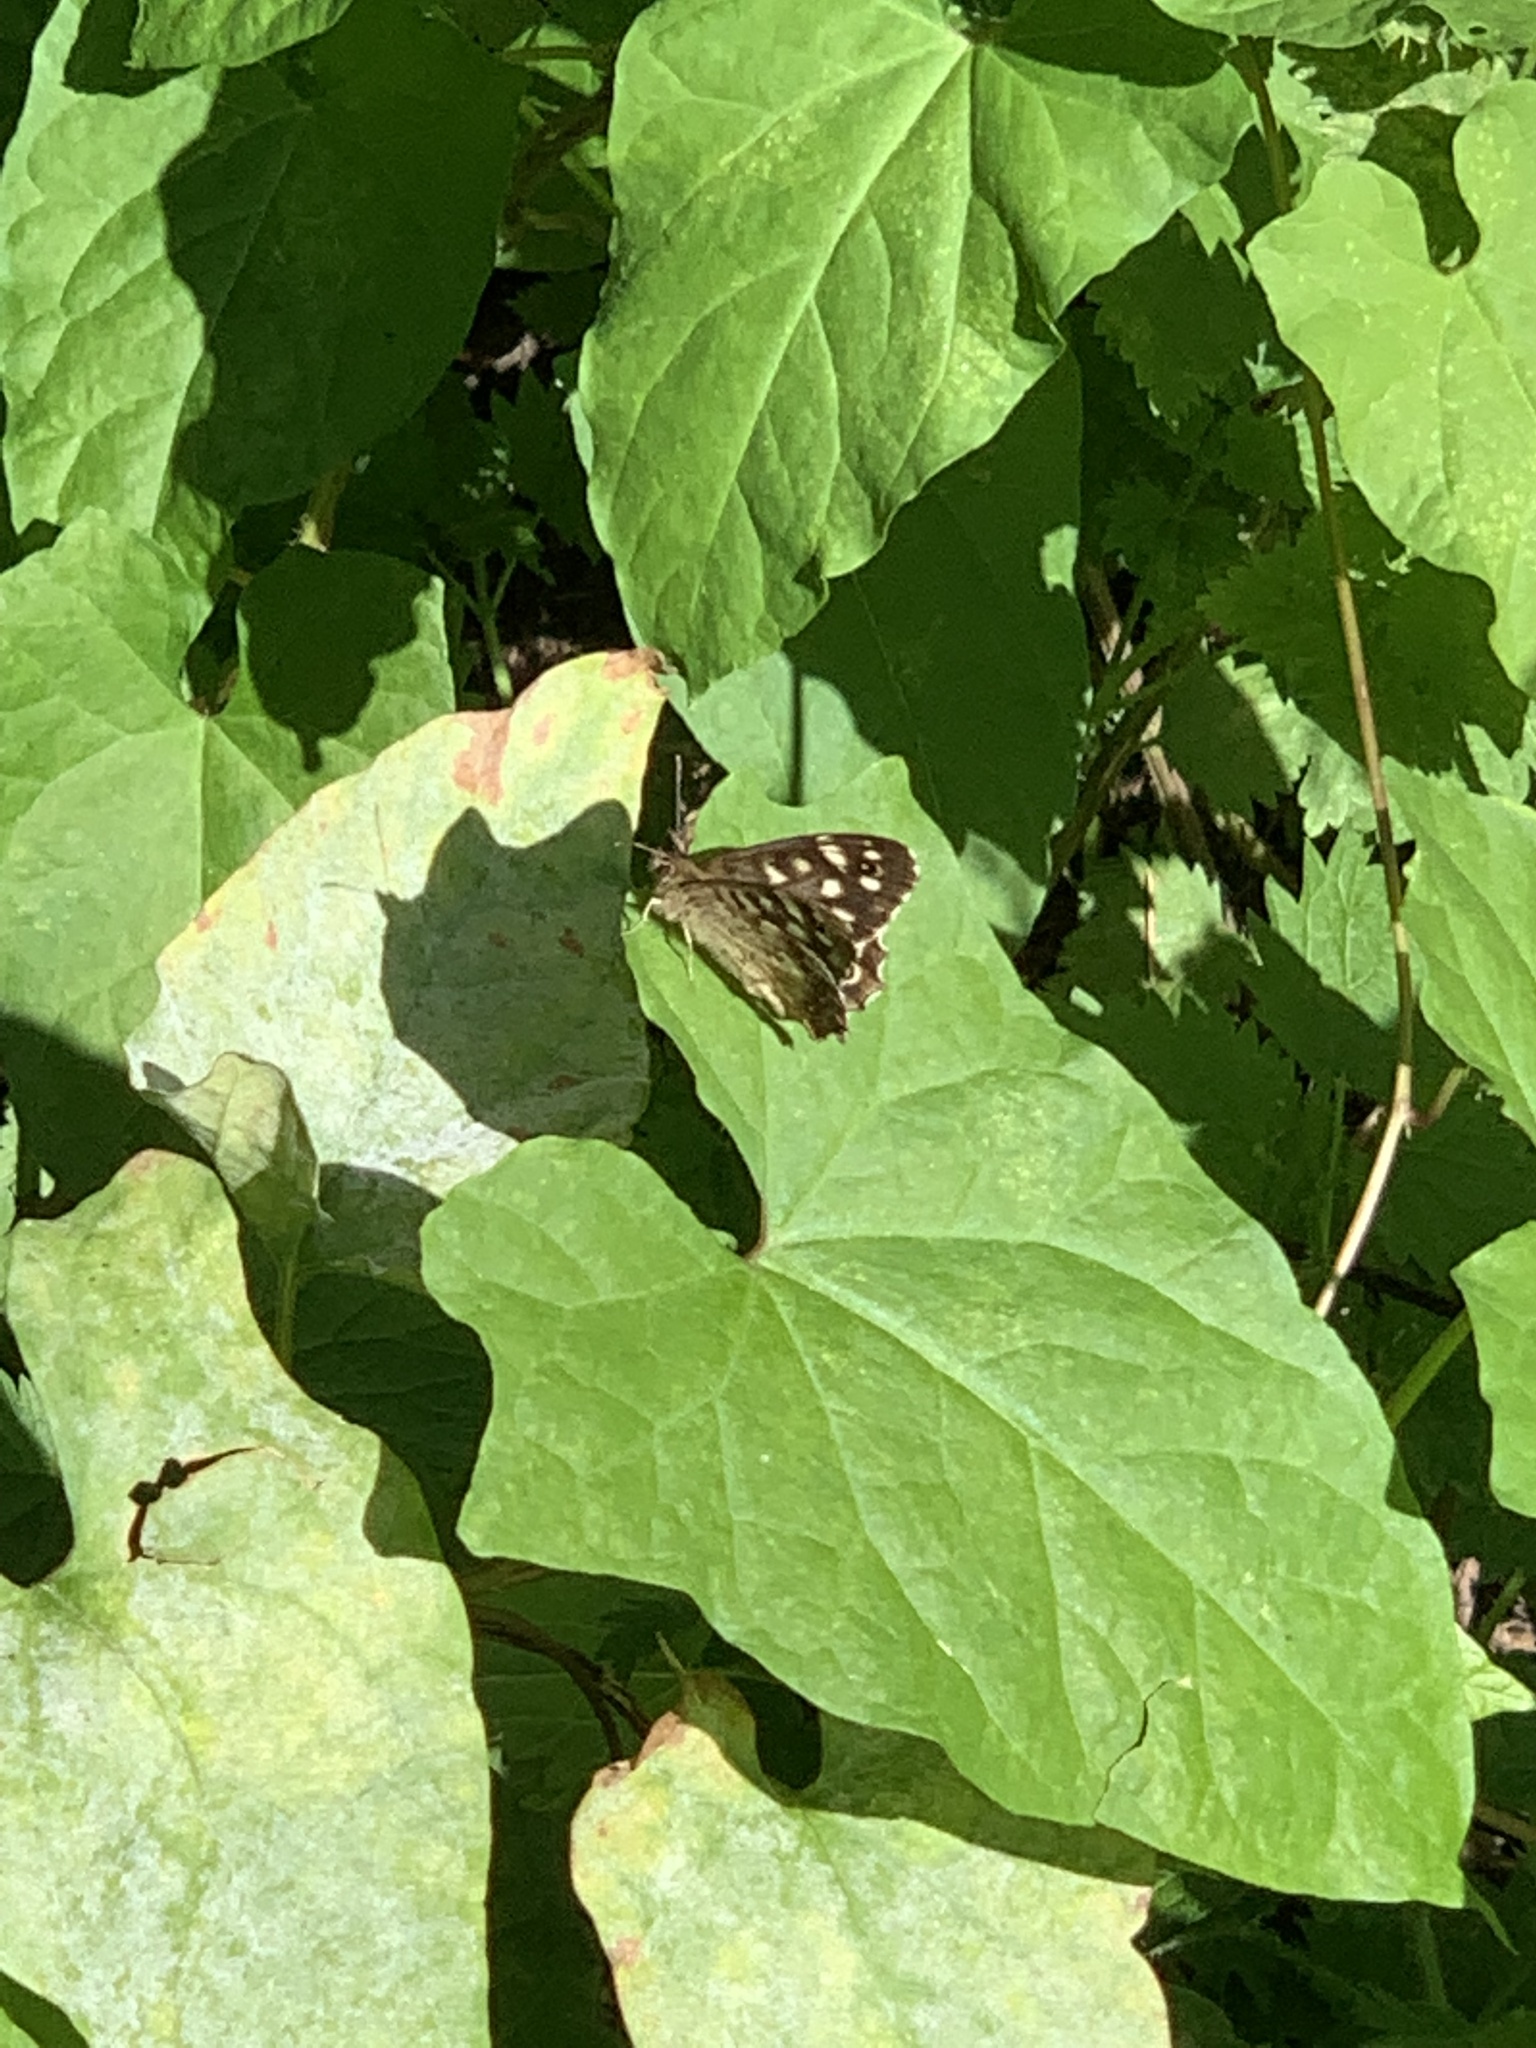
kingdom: Animalia
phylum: Arthropoda
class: Insecta
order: Lepidoptera
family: Nymphalidae
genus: Pararge
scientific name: Pararge aegeria
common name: Speckled wood
